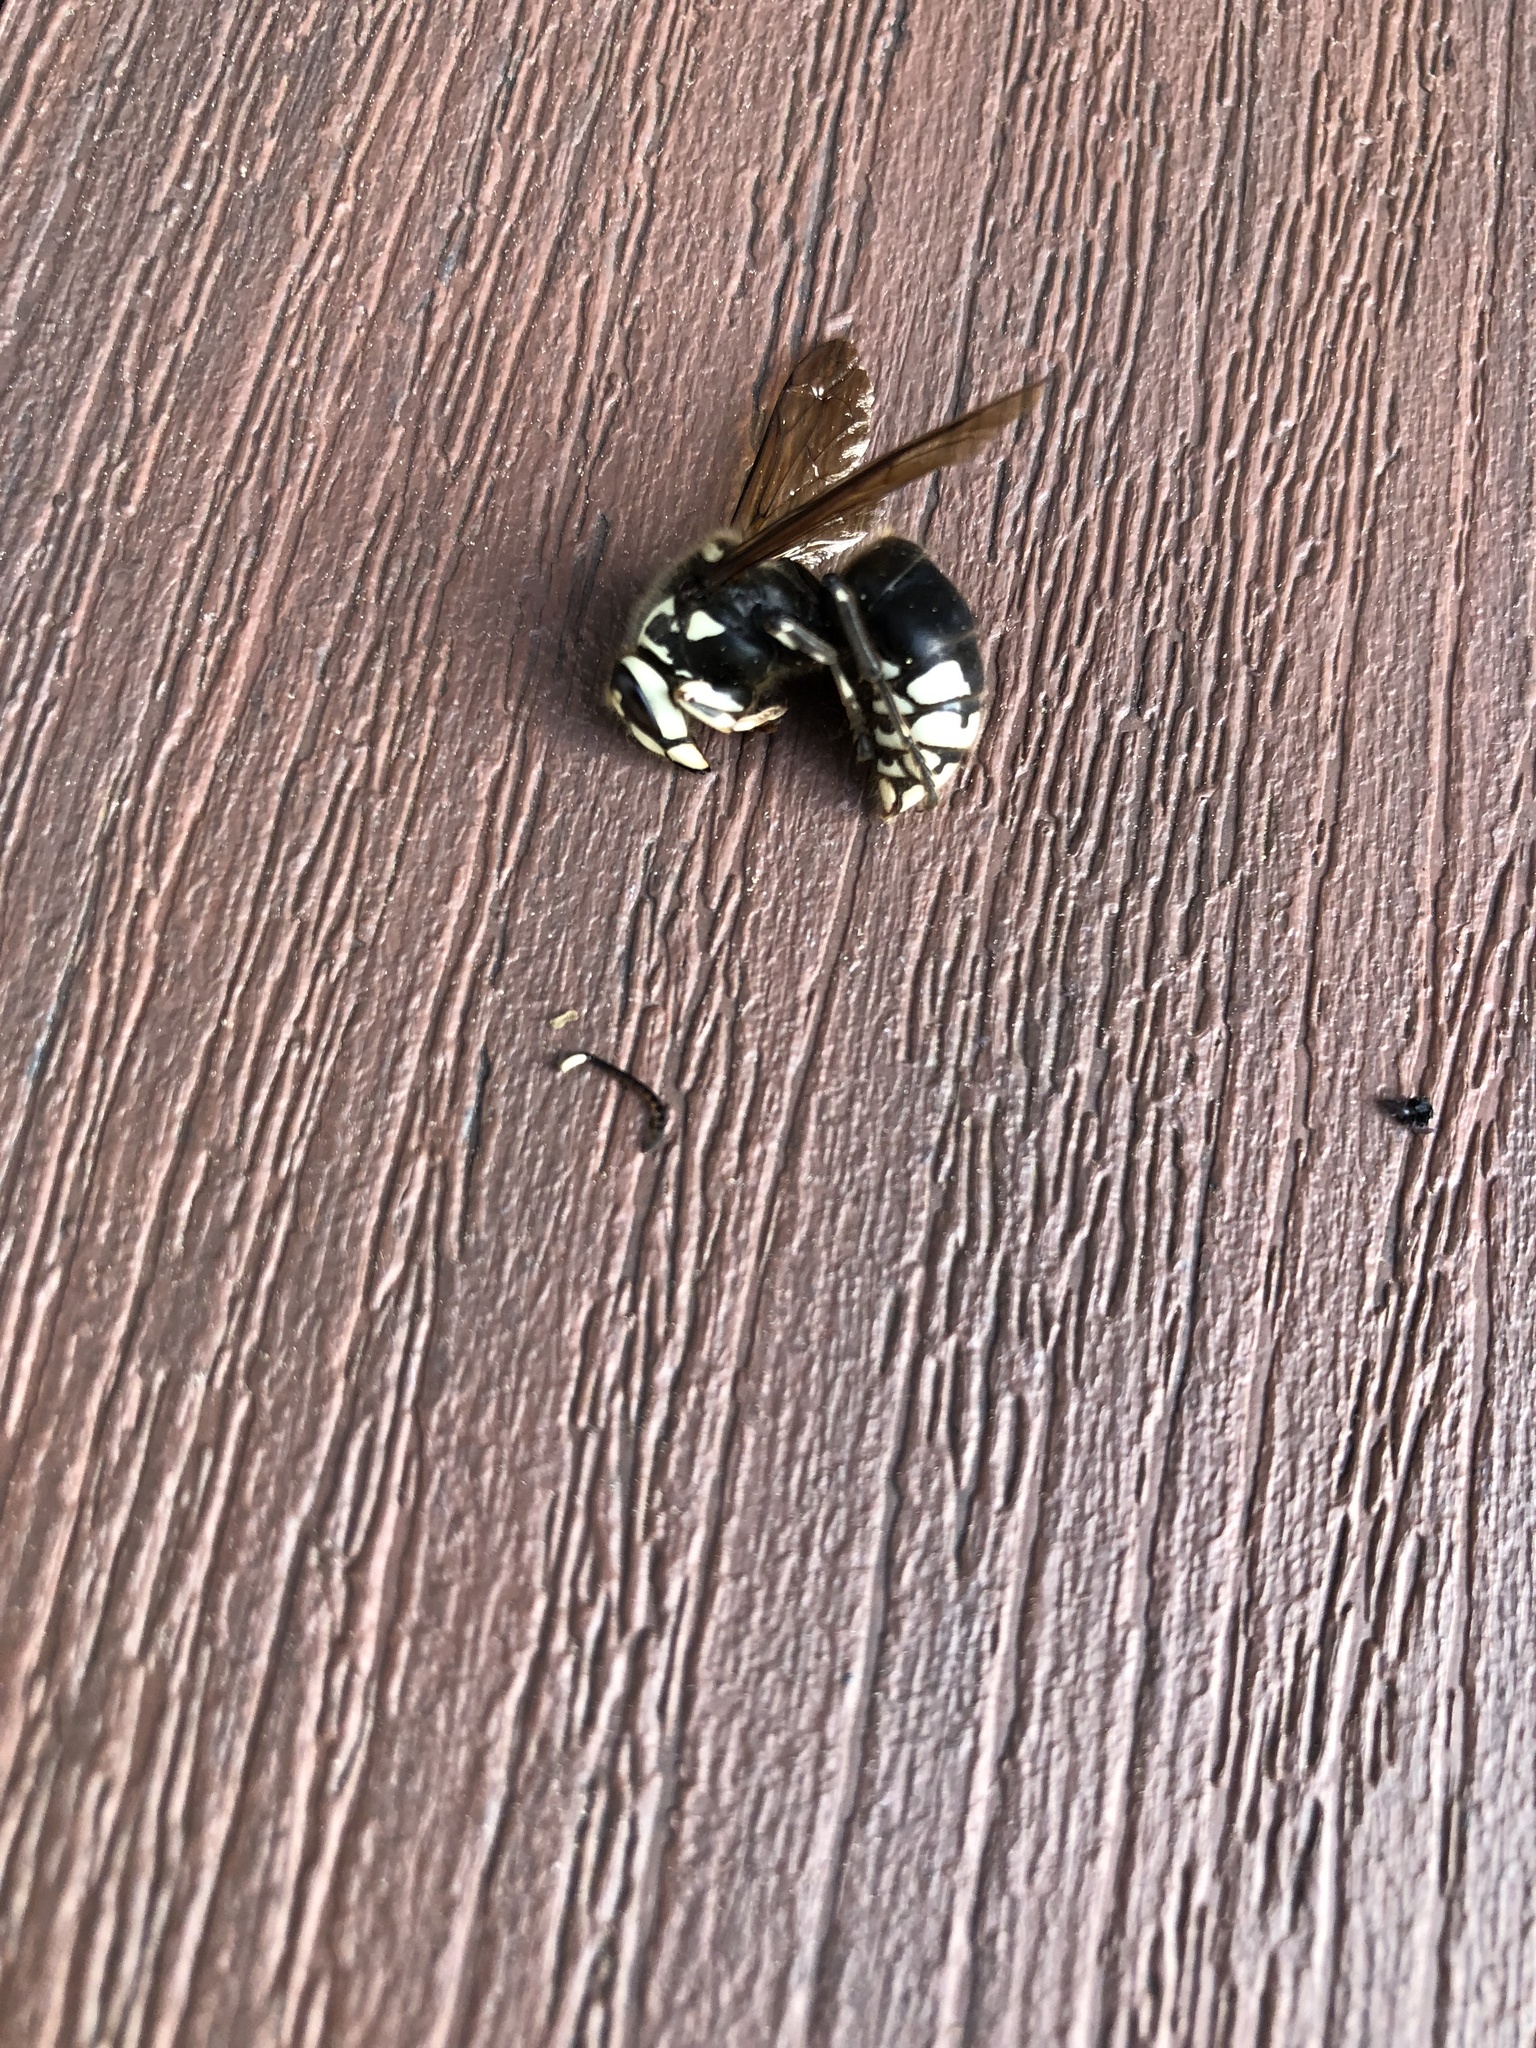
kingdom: Animalia
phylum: Arthropoda
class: Insecta
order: Hymenoptera
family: Vespidae
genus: Dolichovespula
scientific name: Dolichovespula maculata
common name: Bald-faced hornet
